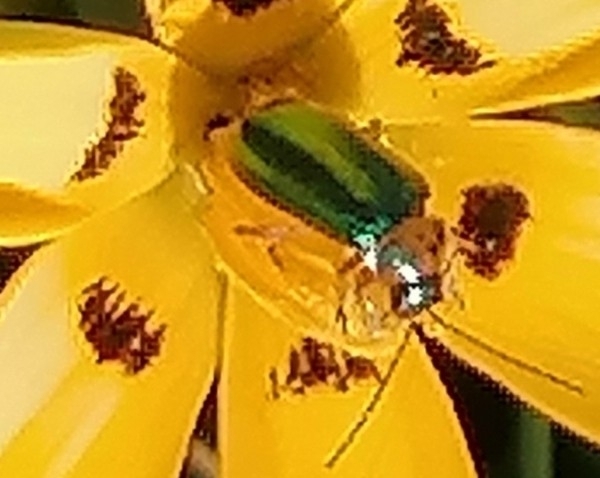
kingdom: Animalia
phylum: Arthropoda
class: Insecta
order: Coleoptera
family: Chrysomelidae
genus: Palaeophylia
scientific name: Palaeophylia
